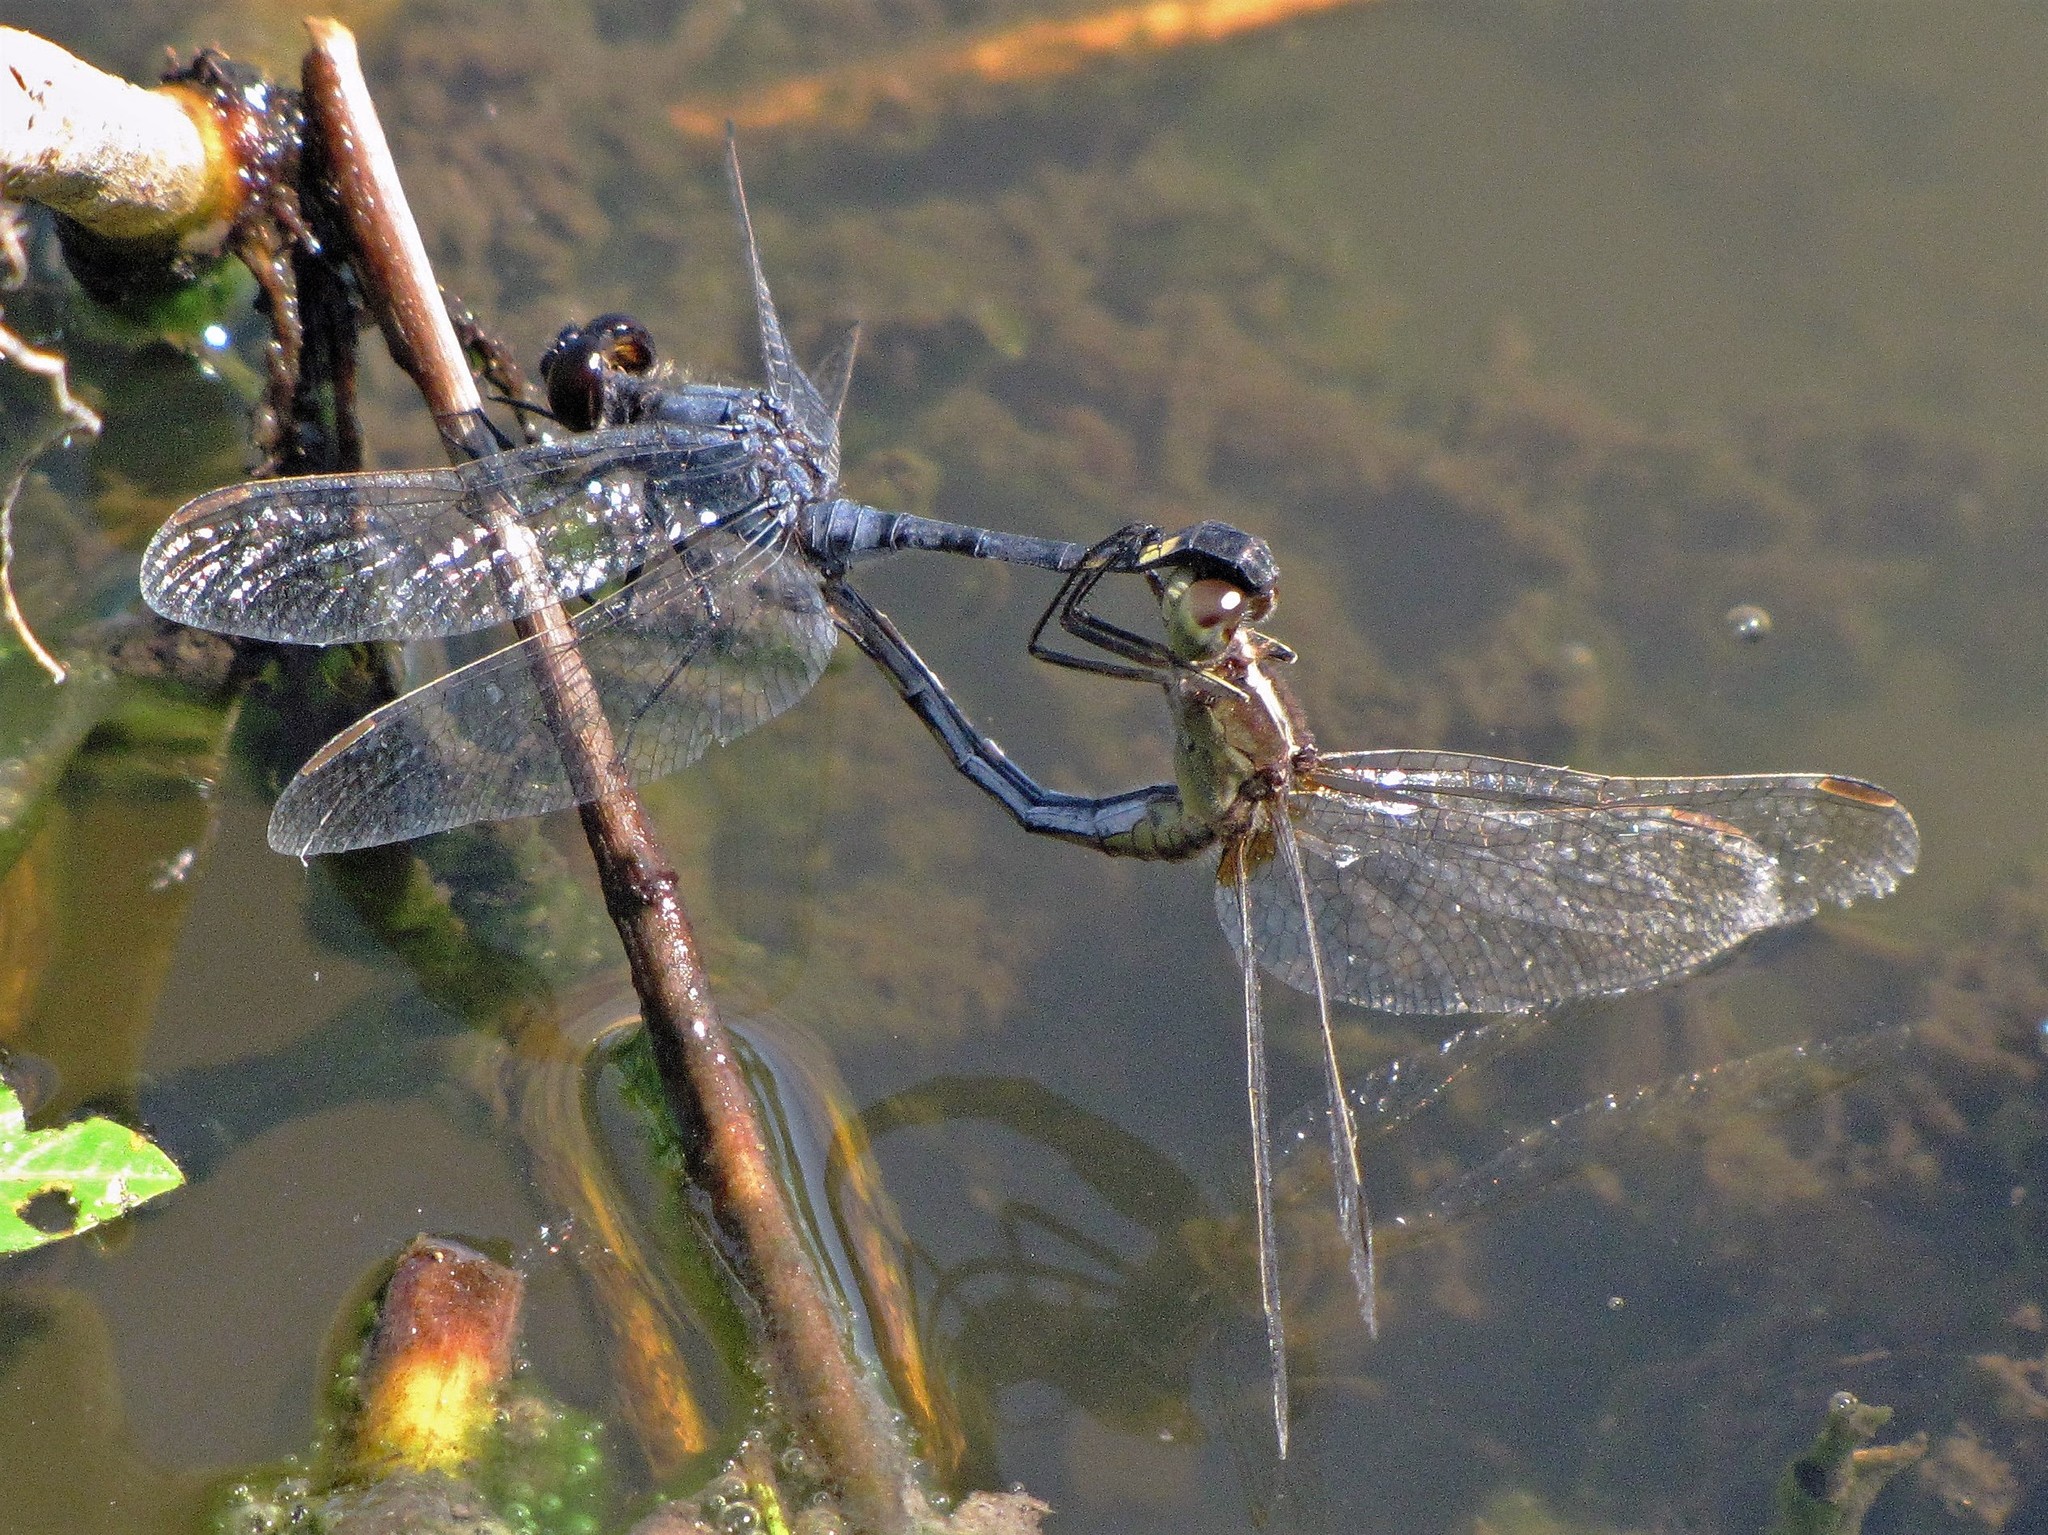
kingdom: Animalia
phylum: Arthropoda
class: Insecta
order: Odonata
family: Libellulidae
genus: Erythrodiplax
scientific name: Erythrodiplax nigricans
